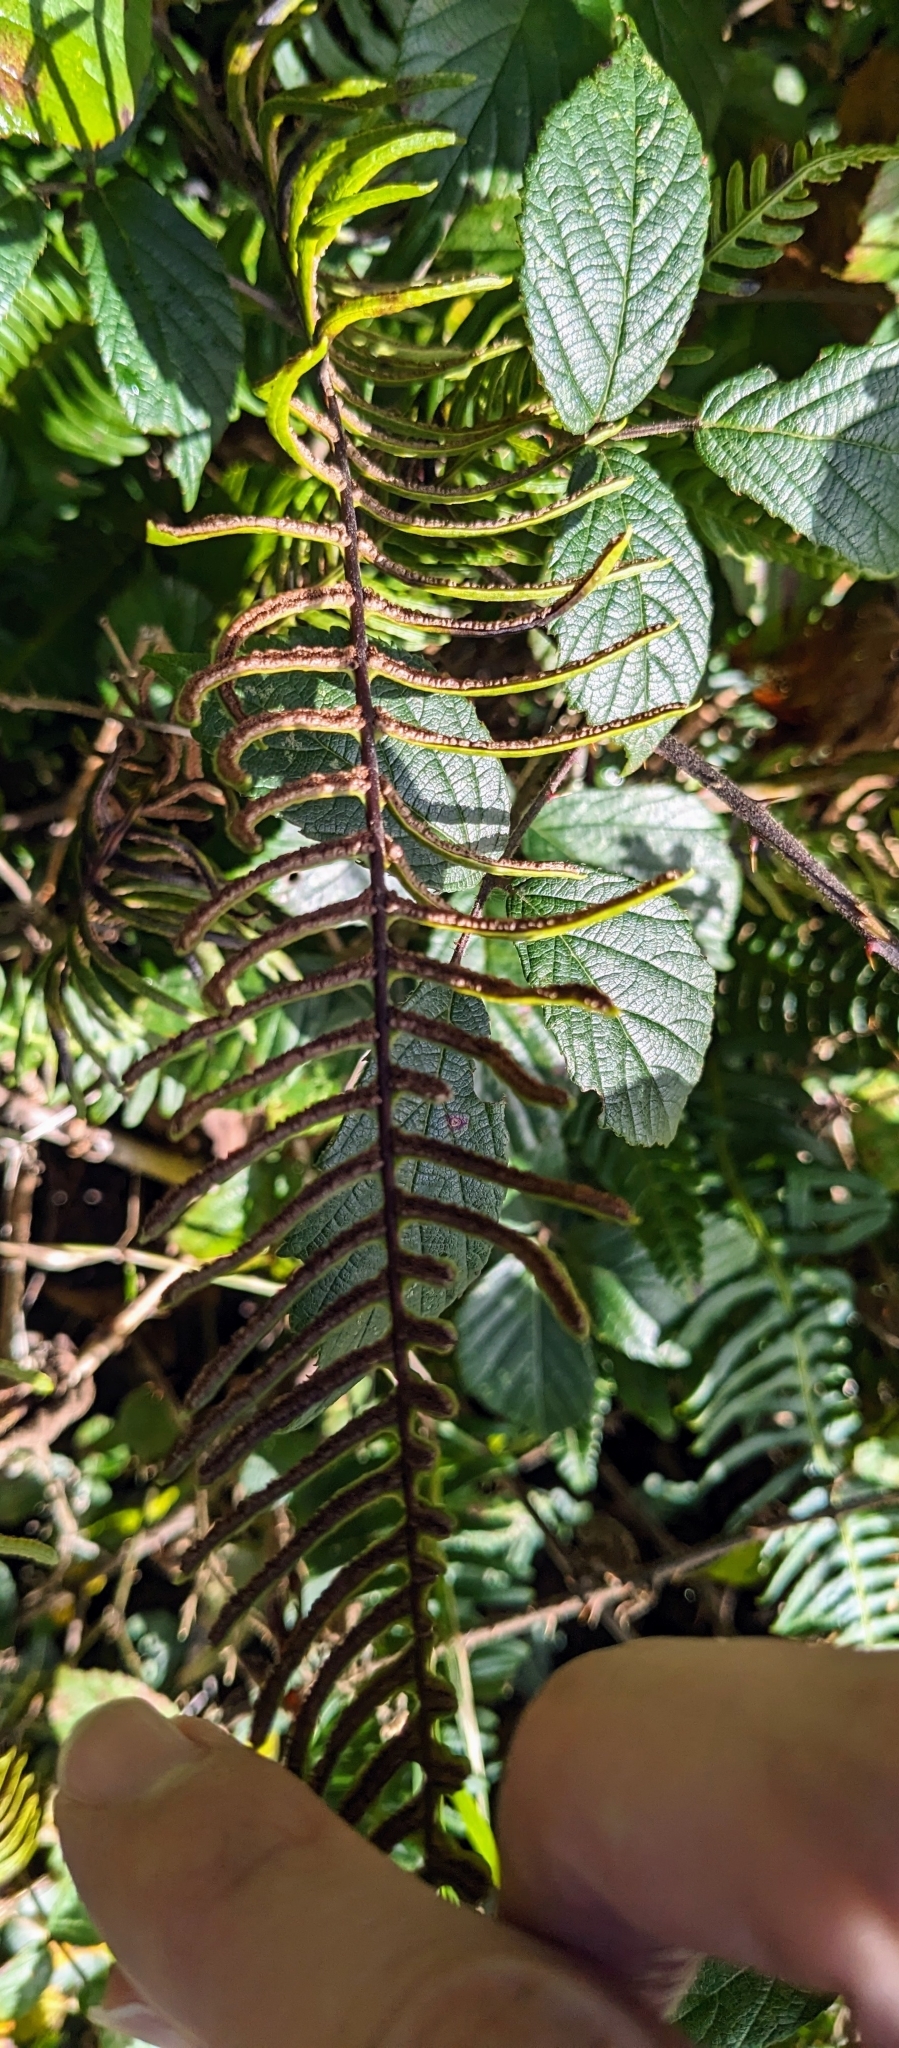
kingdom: Plantae
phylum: Tracheophyta
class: Polypodiopsida
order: Polypodiales
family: Blechnaceae
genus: Struthiopteris
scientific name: Struthiopteris spicant
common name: Deer fern
